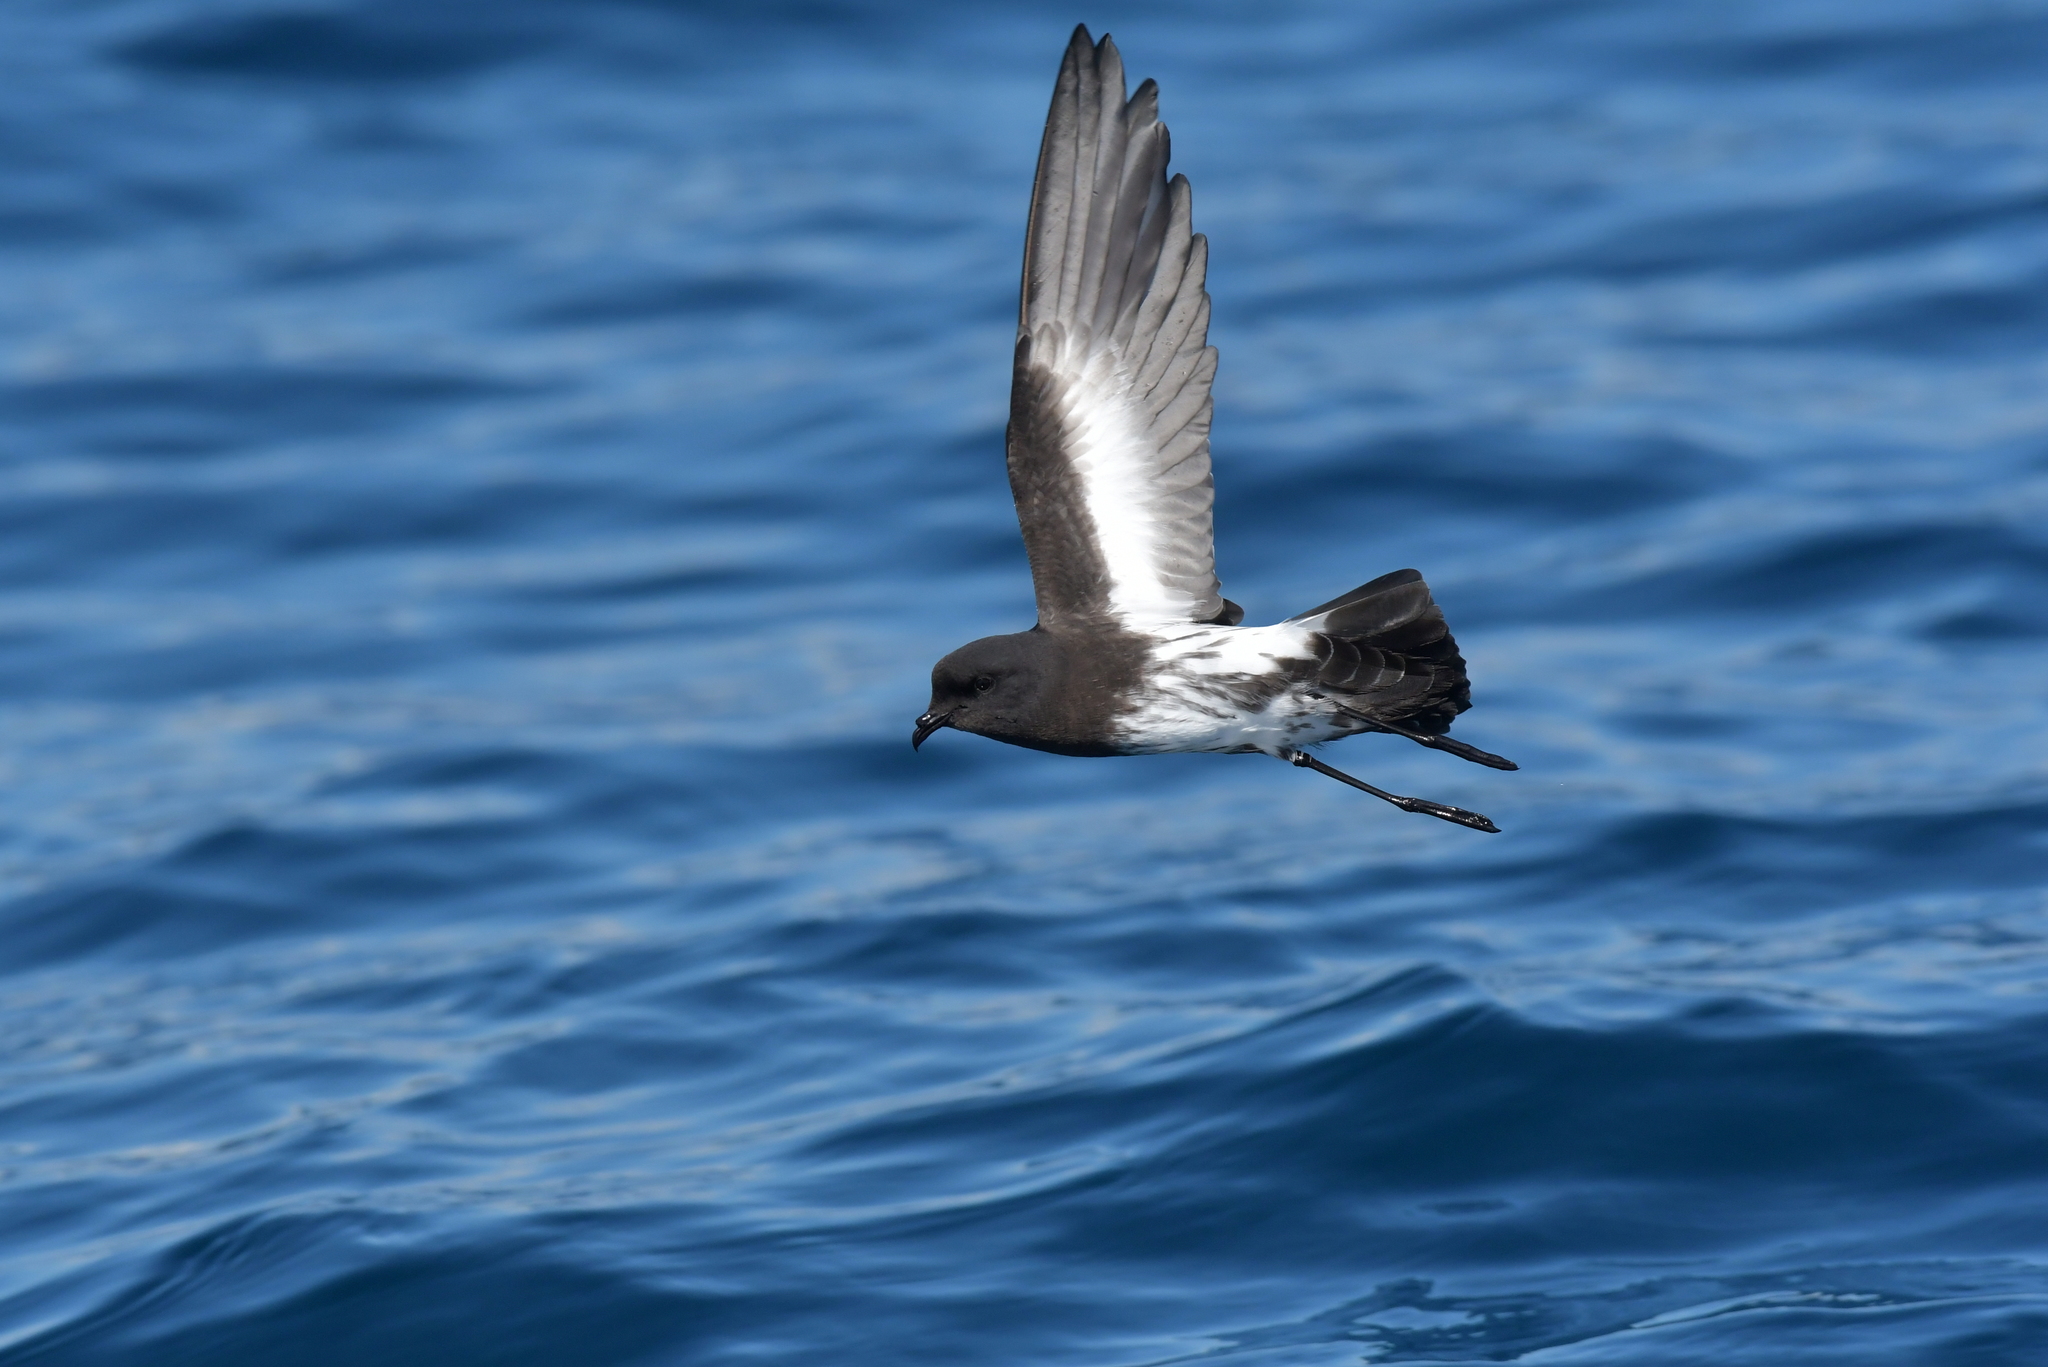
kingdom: Animalia
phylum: Chordata
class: Aves
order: Procellariiformes
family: Hydrobatidae
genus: Oceanites
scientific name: Oceanites maorianus
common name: New zealand storm petrel
